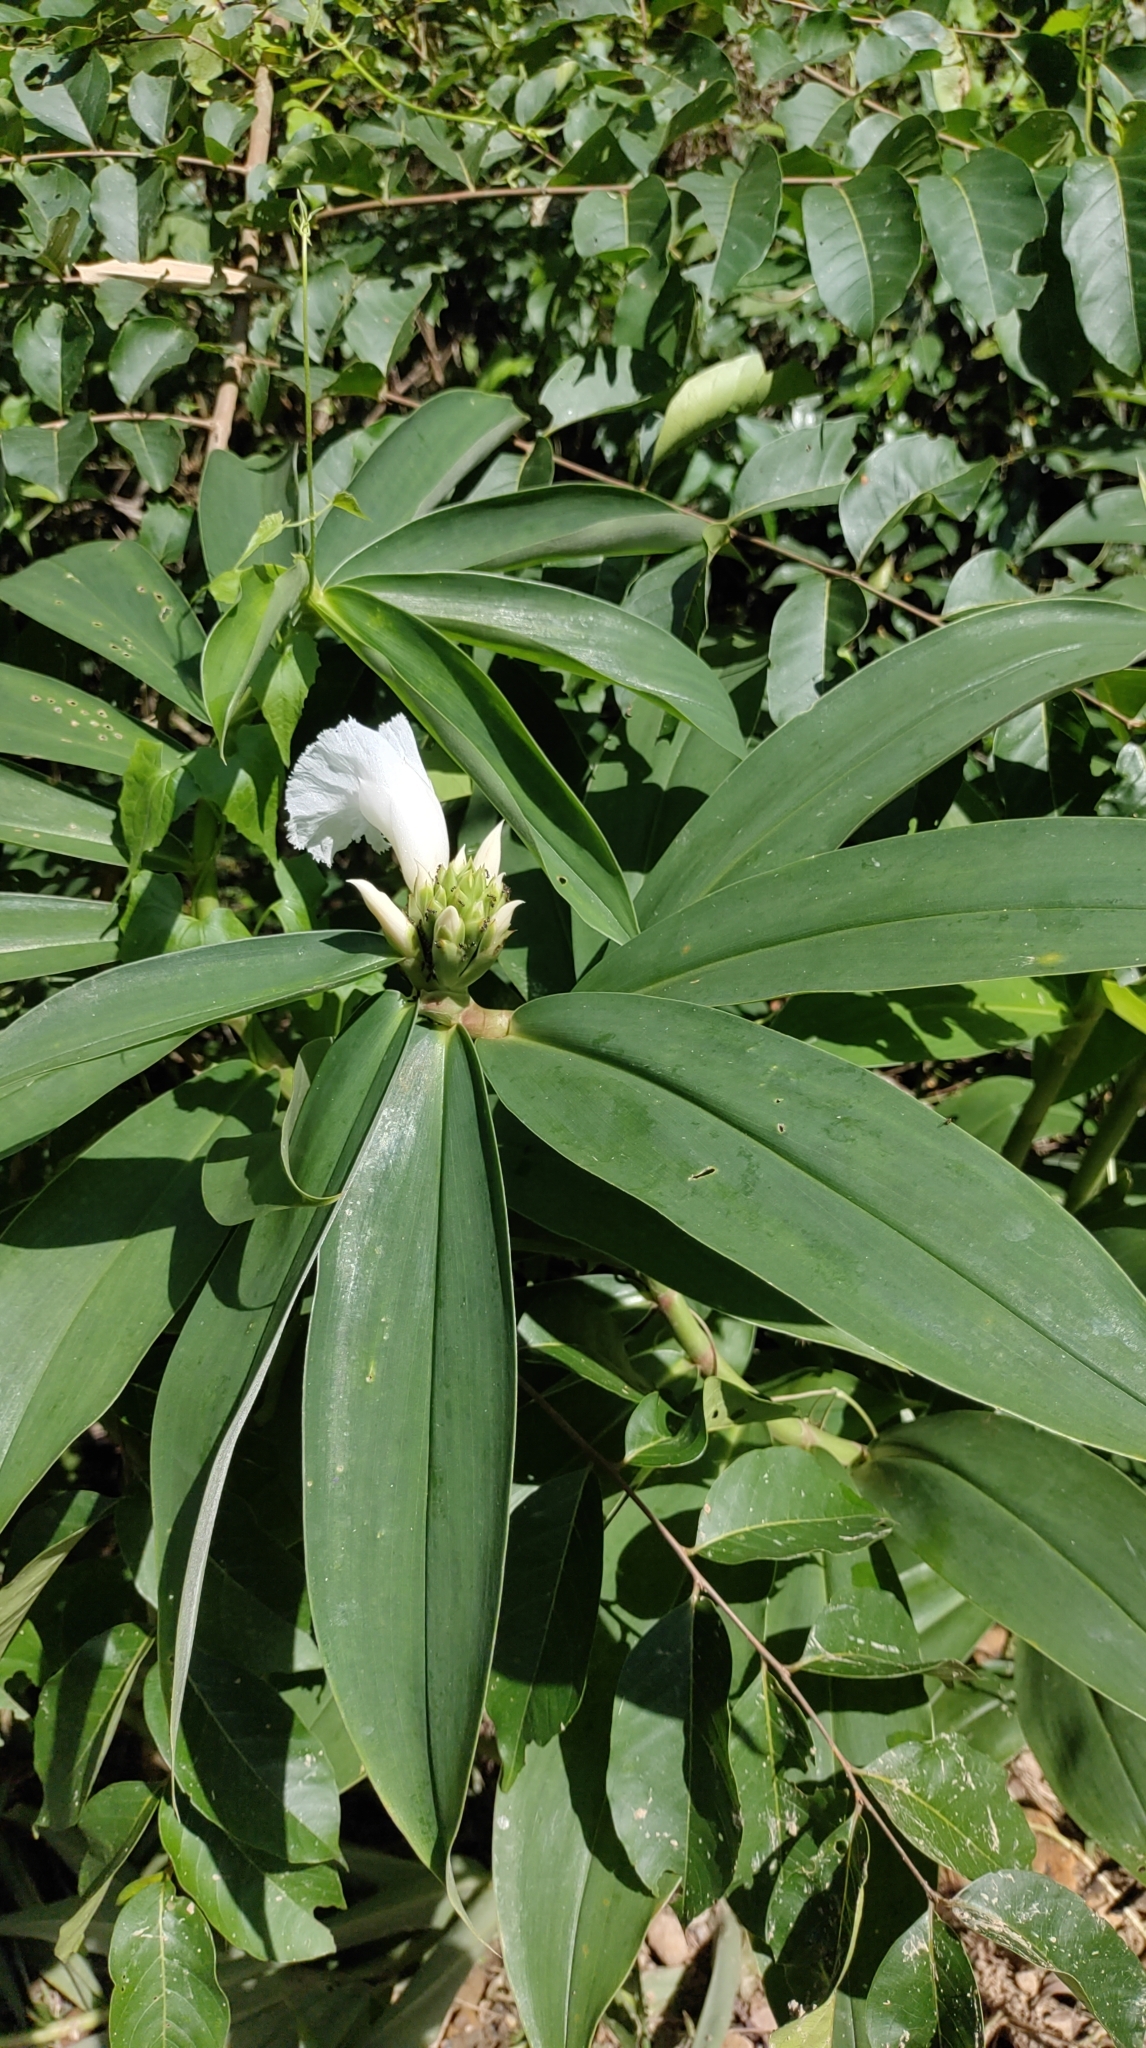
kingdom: Plantae
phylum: Tracheophyta
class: Liliopsida
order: Zingiberales
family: Costaceae
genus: Hellenia
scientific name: Hellenia speciosa
